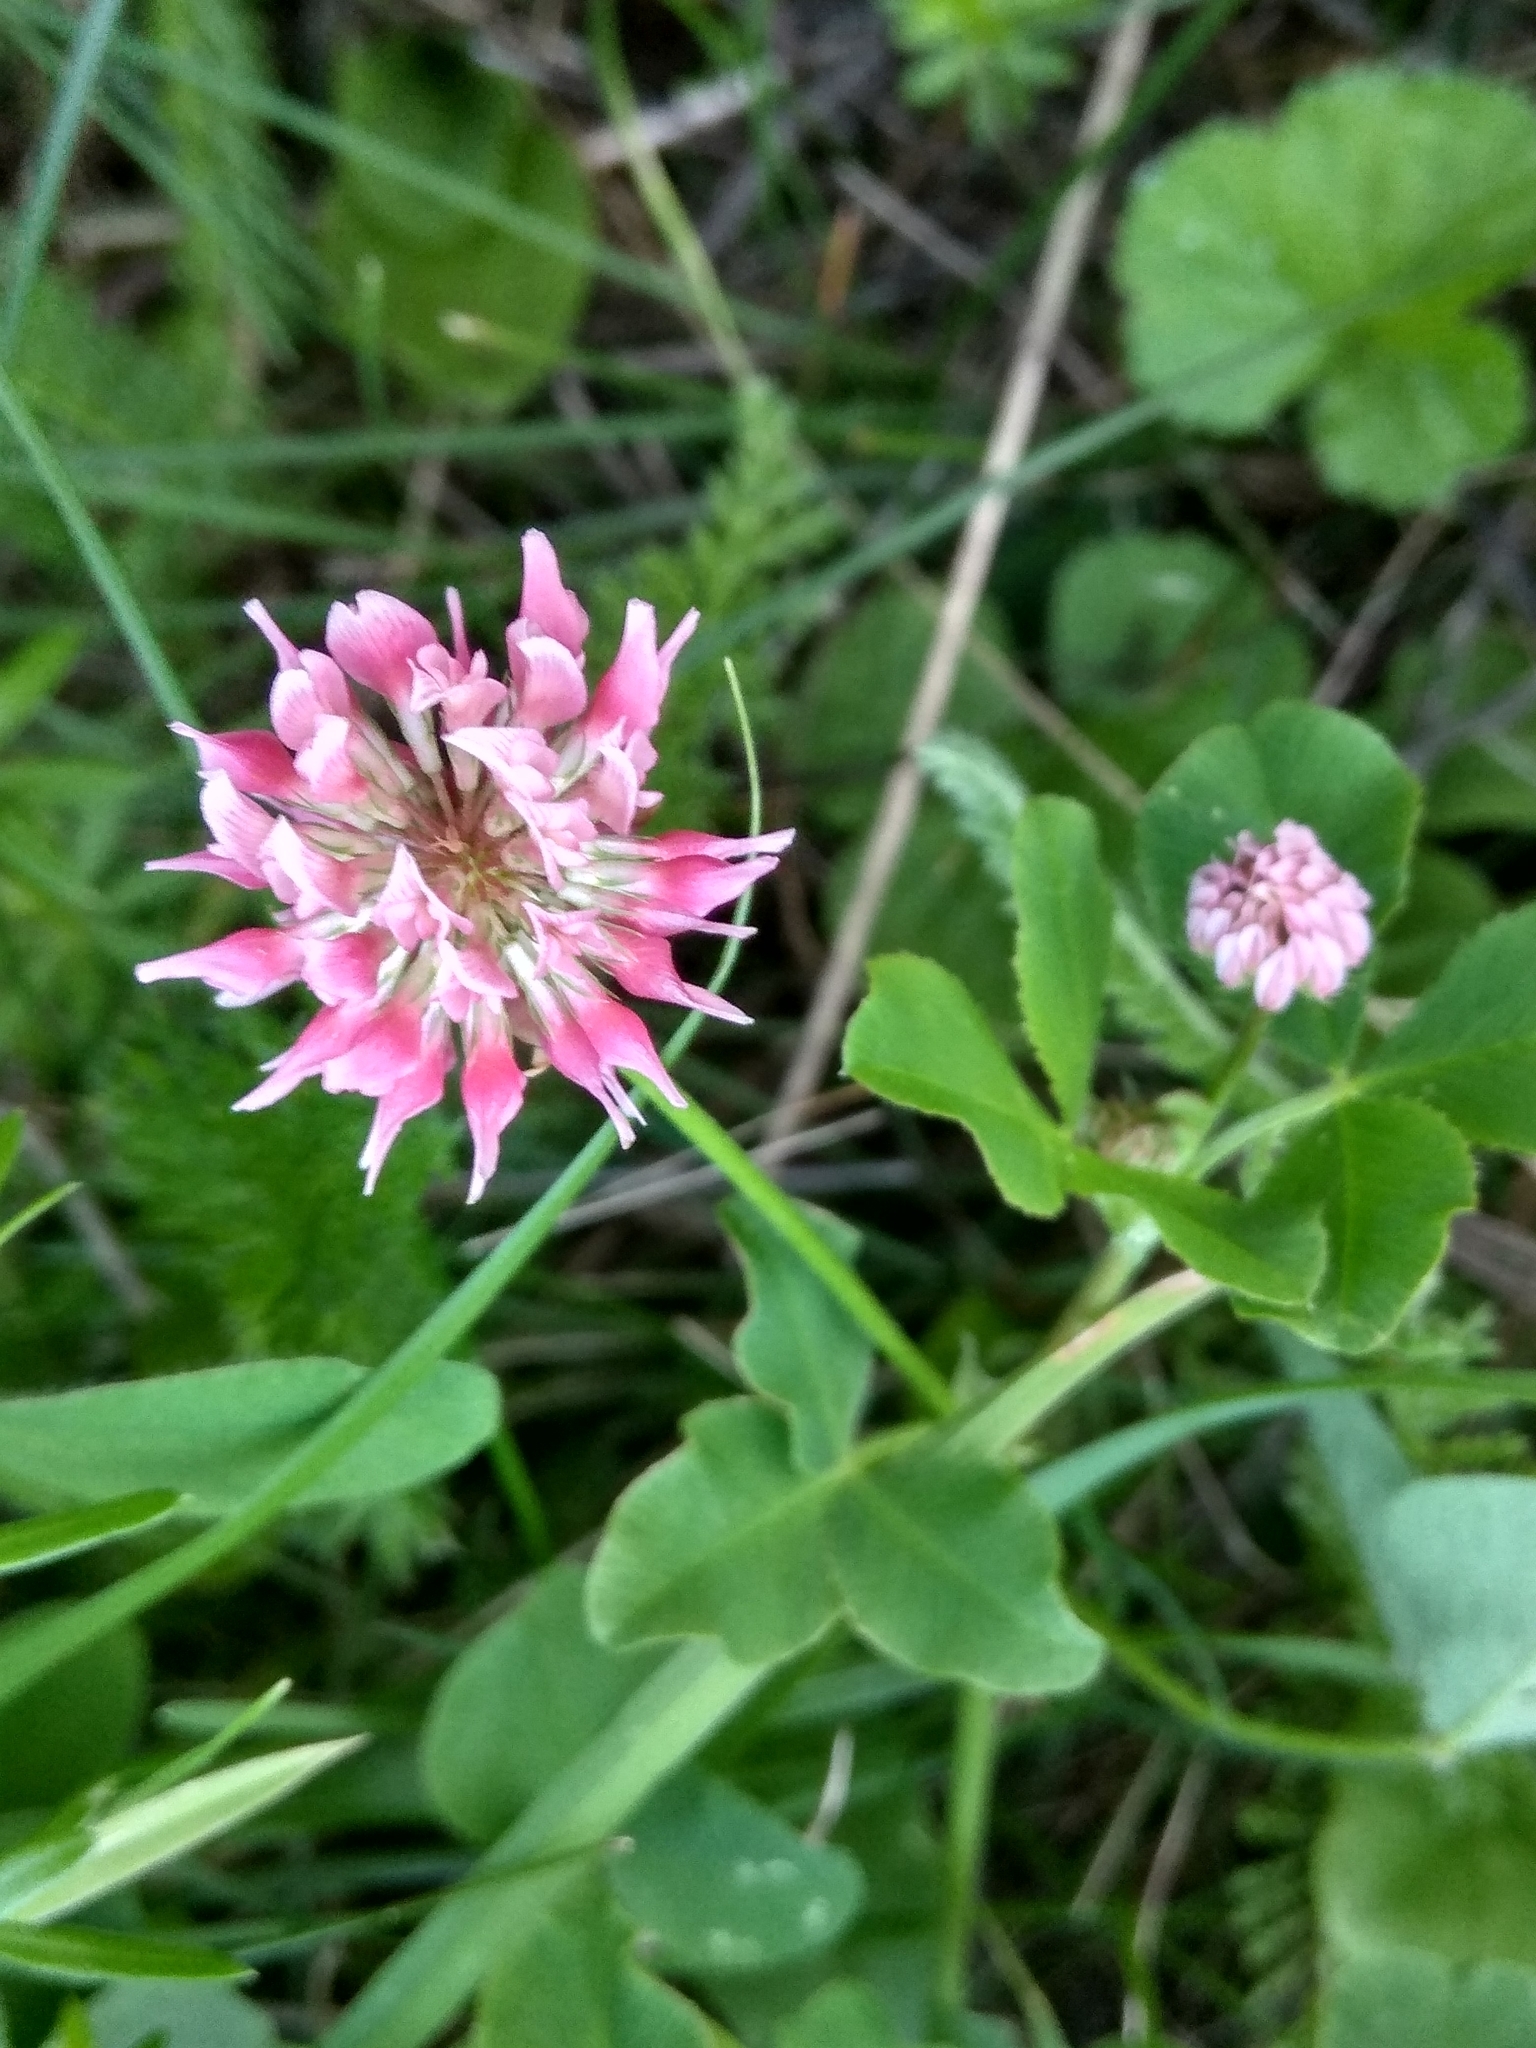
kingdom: Plantae
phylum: Tracheophyta
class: Magnoliopsida
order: Fabales
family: Fabaceae
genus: Trifolium
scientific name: Trifolium hybridum
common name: Alsike clover
